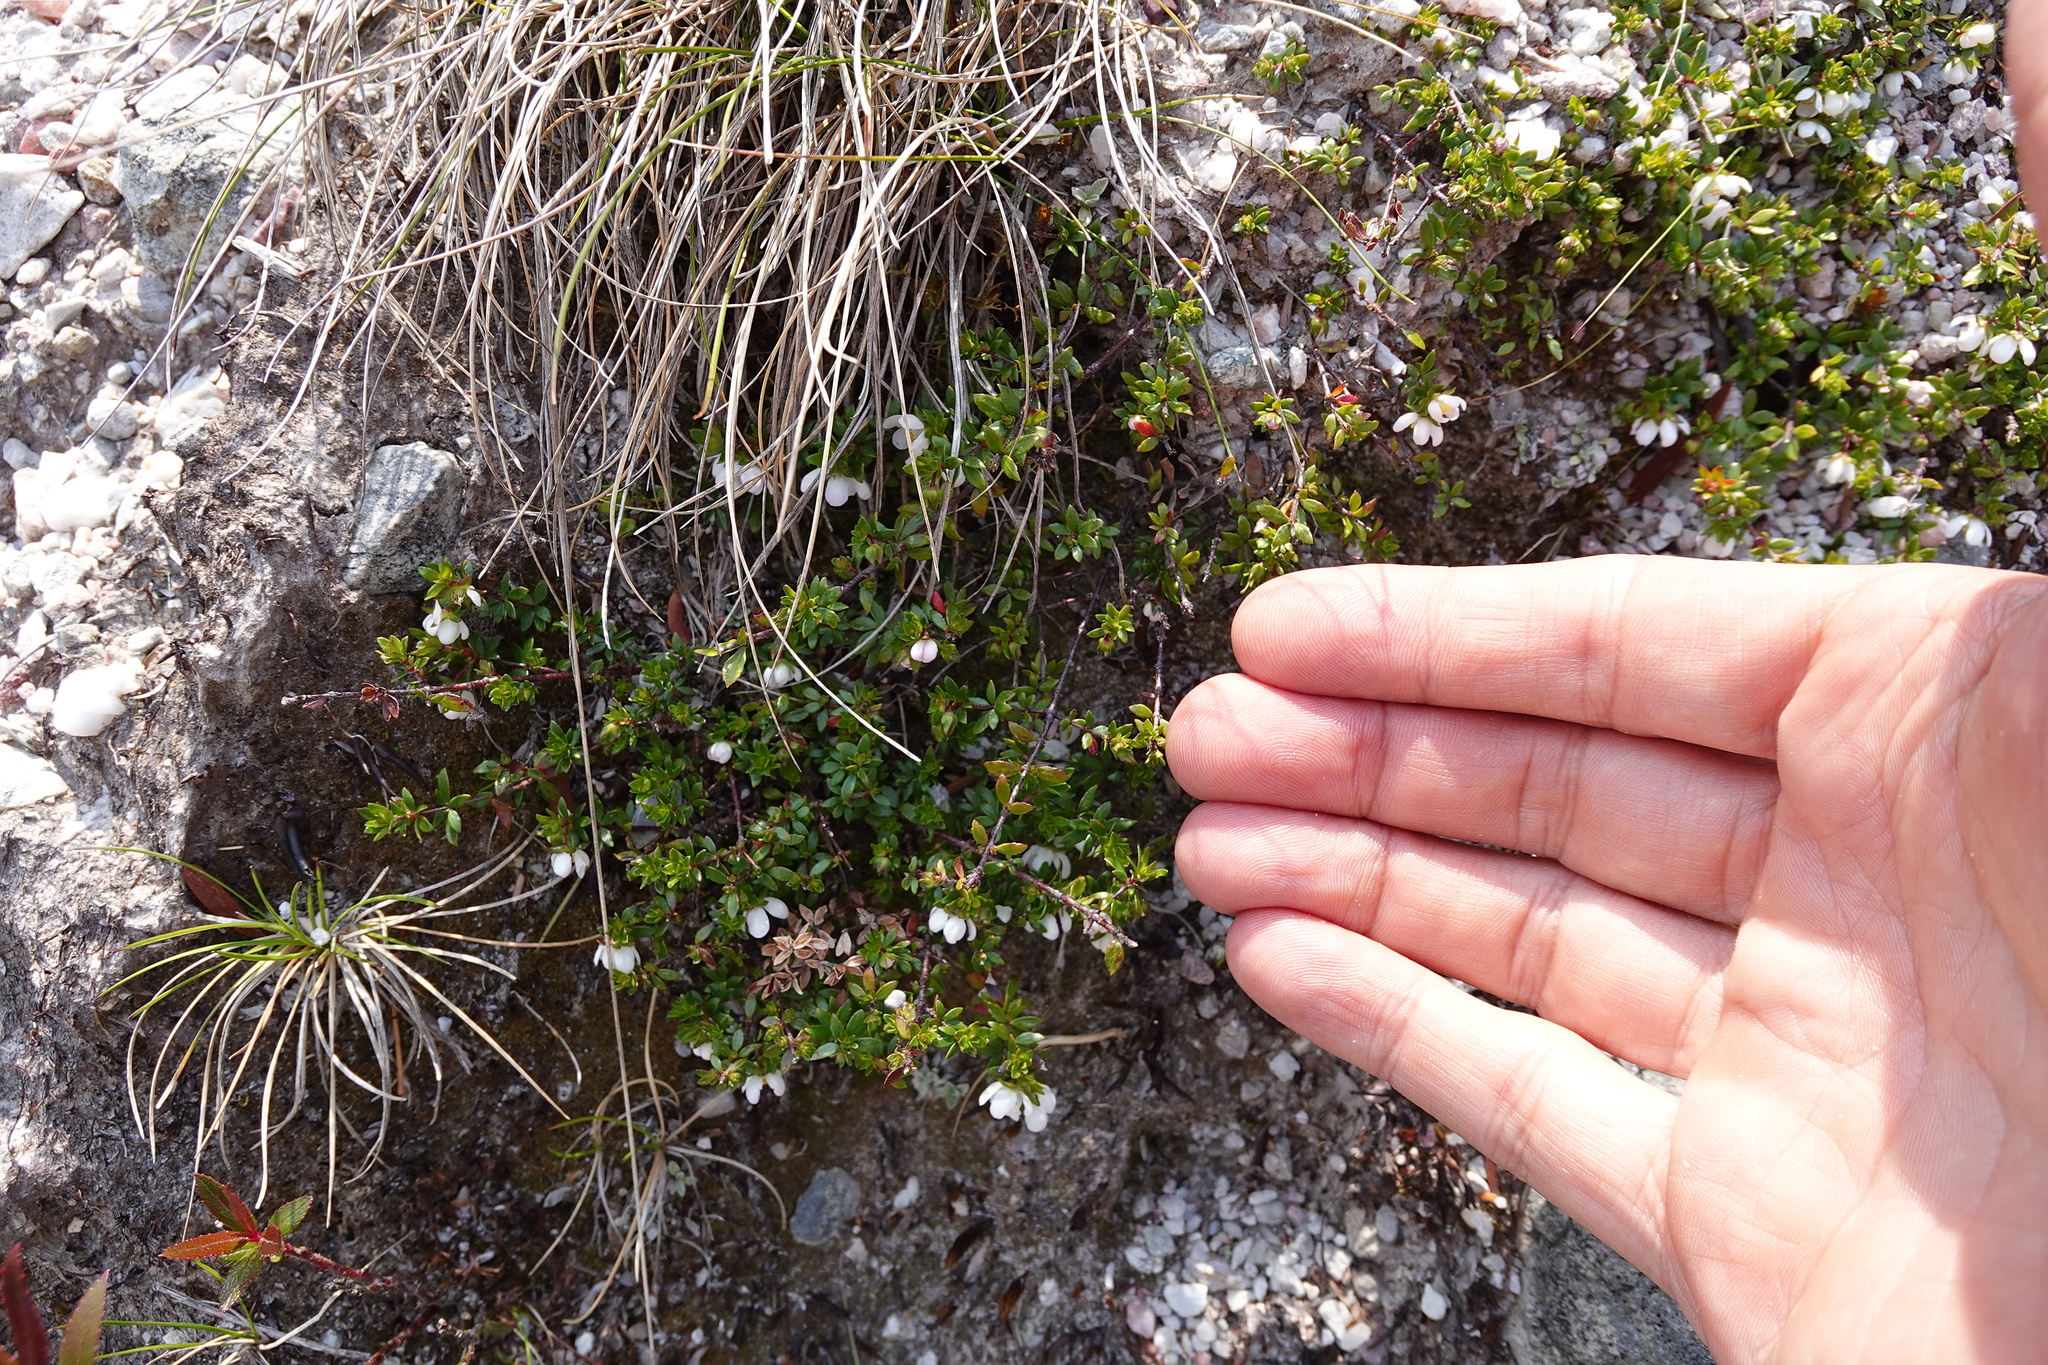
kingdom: Plantae
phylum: Tracheophyta
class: Magnoliopsida
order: Oxalidales
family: Cunoniaceae
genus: Bauera
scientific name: Bauera rubioides
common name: River-rose
